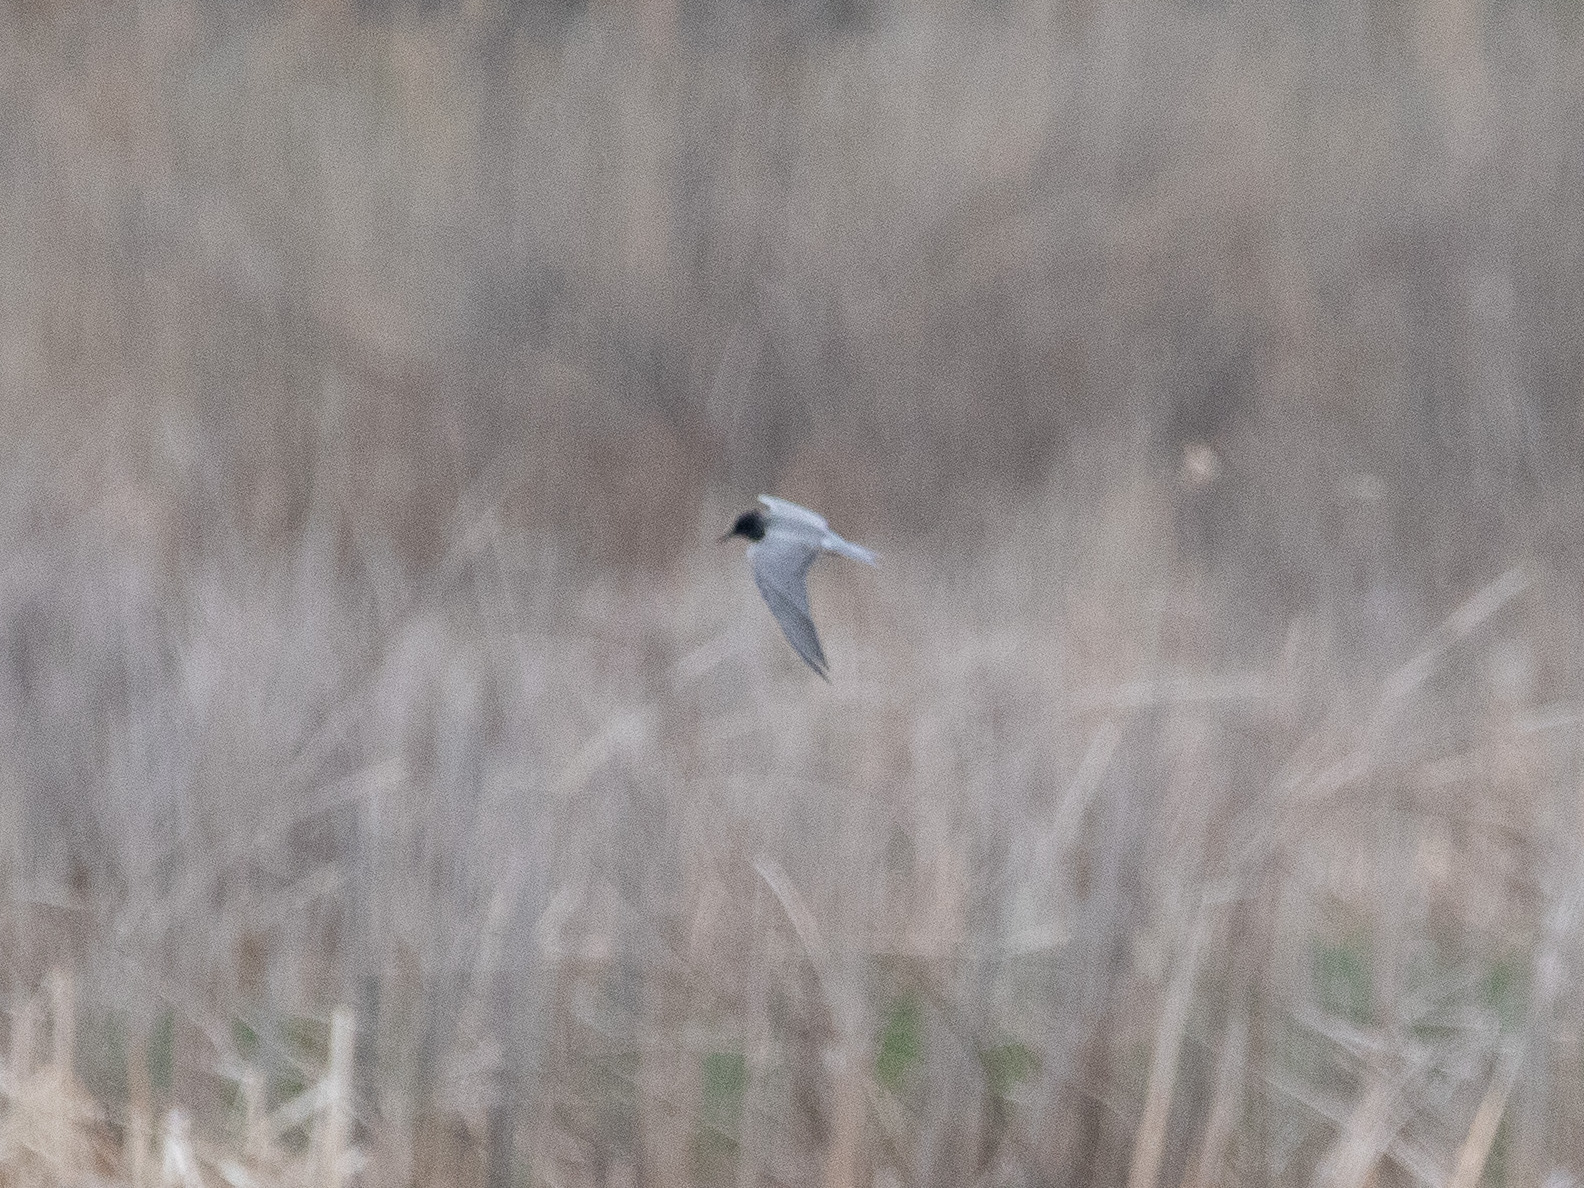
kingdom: Animalia
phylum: Chordata
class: Aves
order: Charadriiformes
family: Laridae
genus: Chlidonias
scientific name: Chlidonias niger
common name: Black tern
